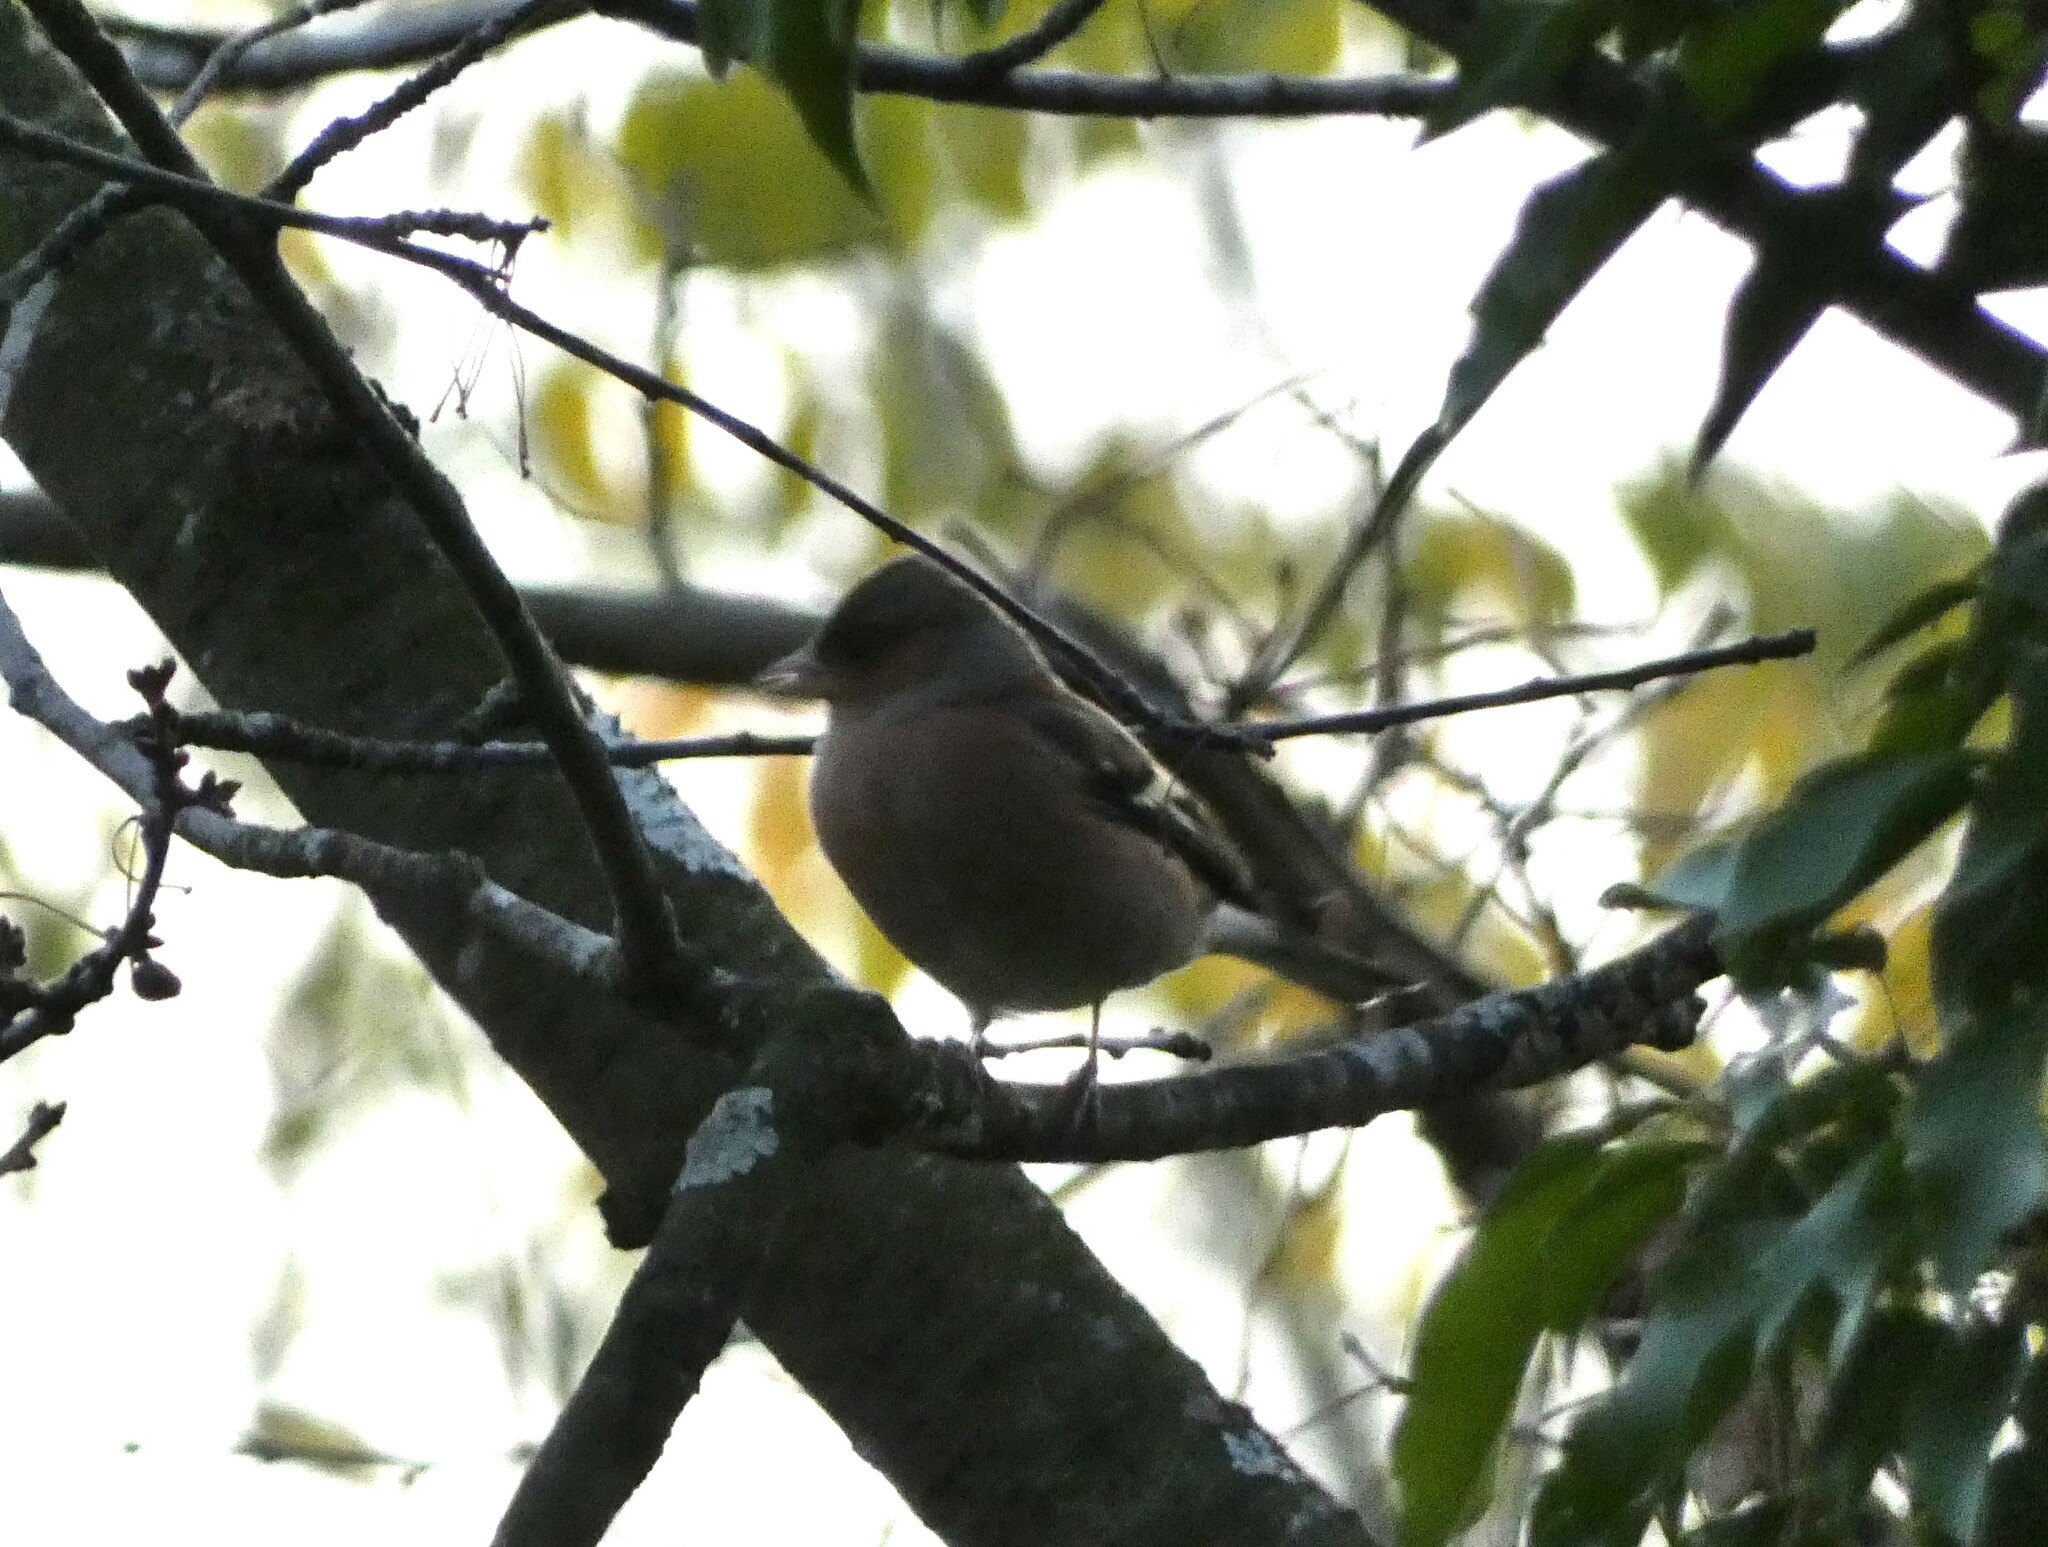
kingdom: Animalia
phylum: Chordata
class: Aves
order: Passeriformes
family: Fringillidae
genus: Fringilla
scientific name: Fringilla coelebs
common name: Common chaffinch
